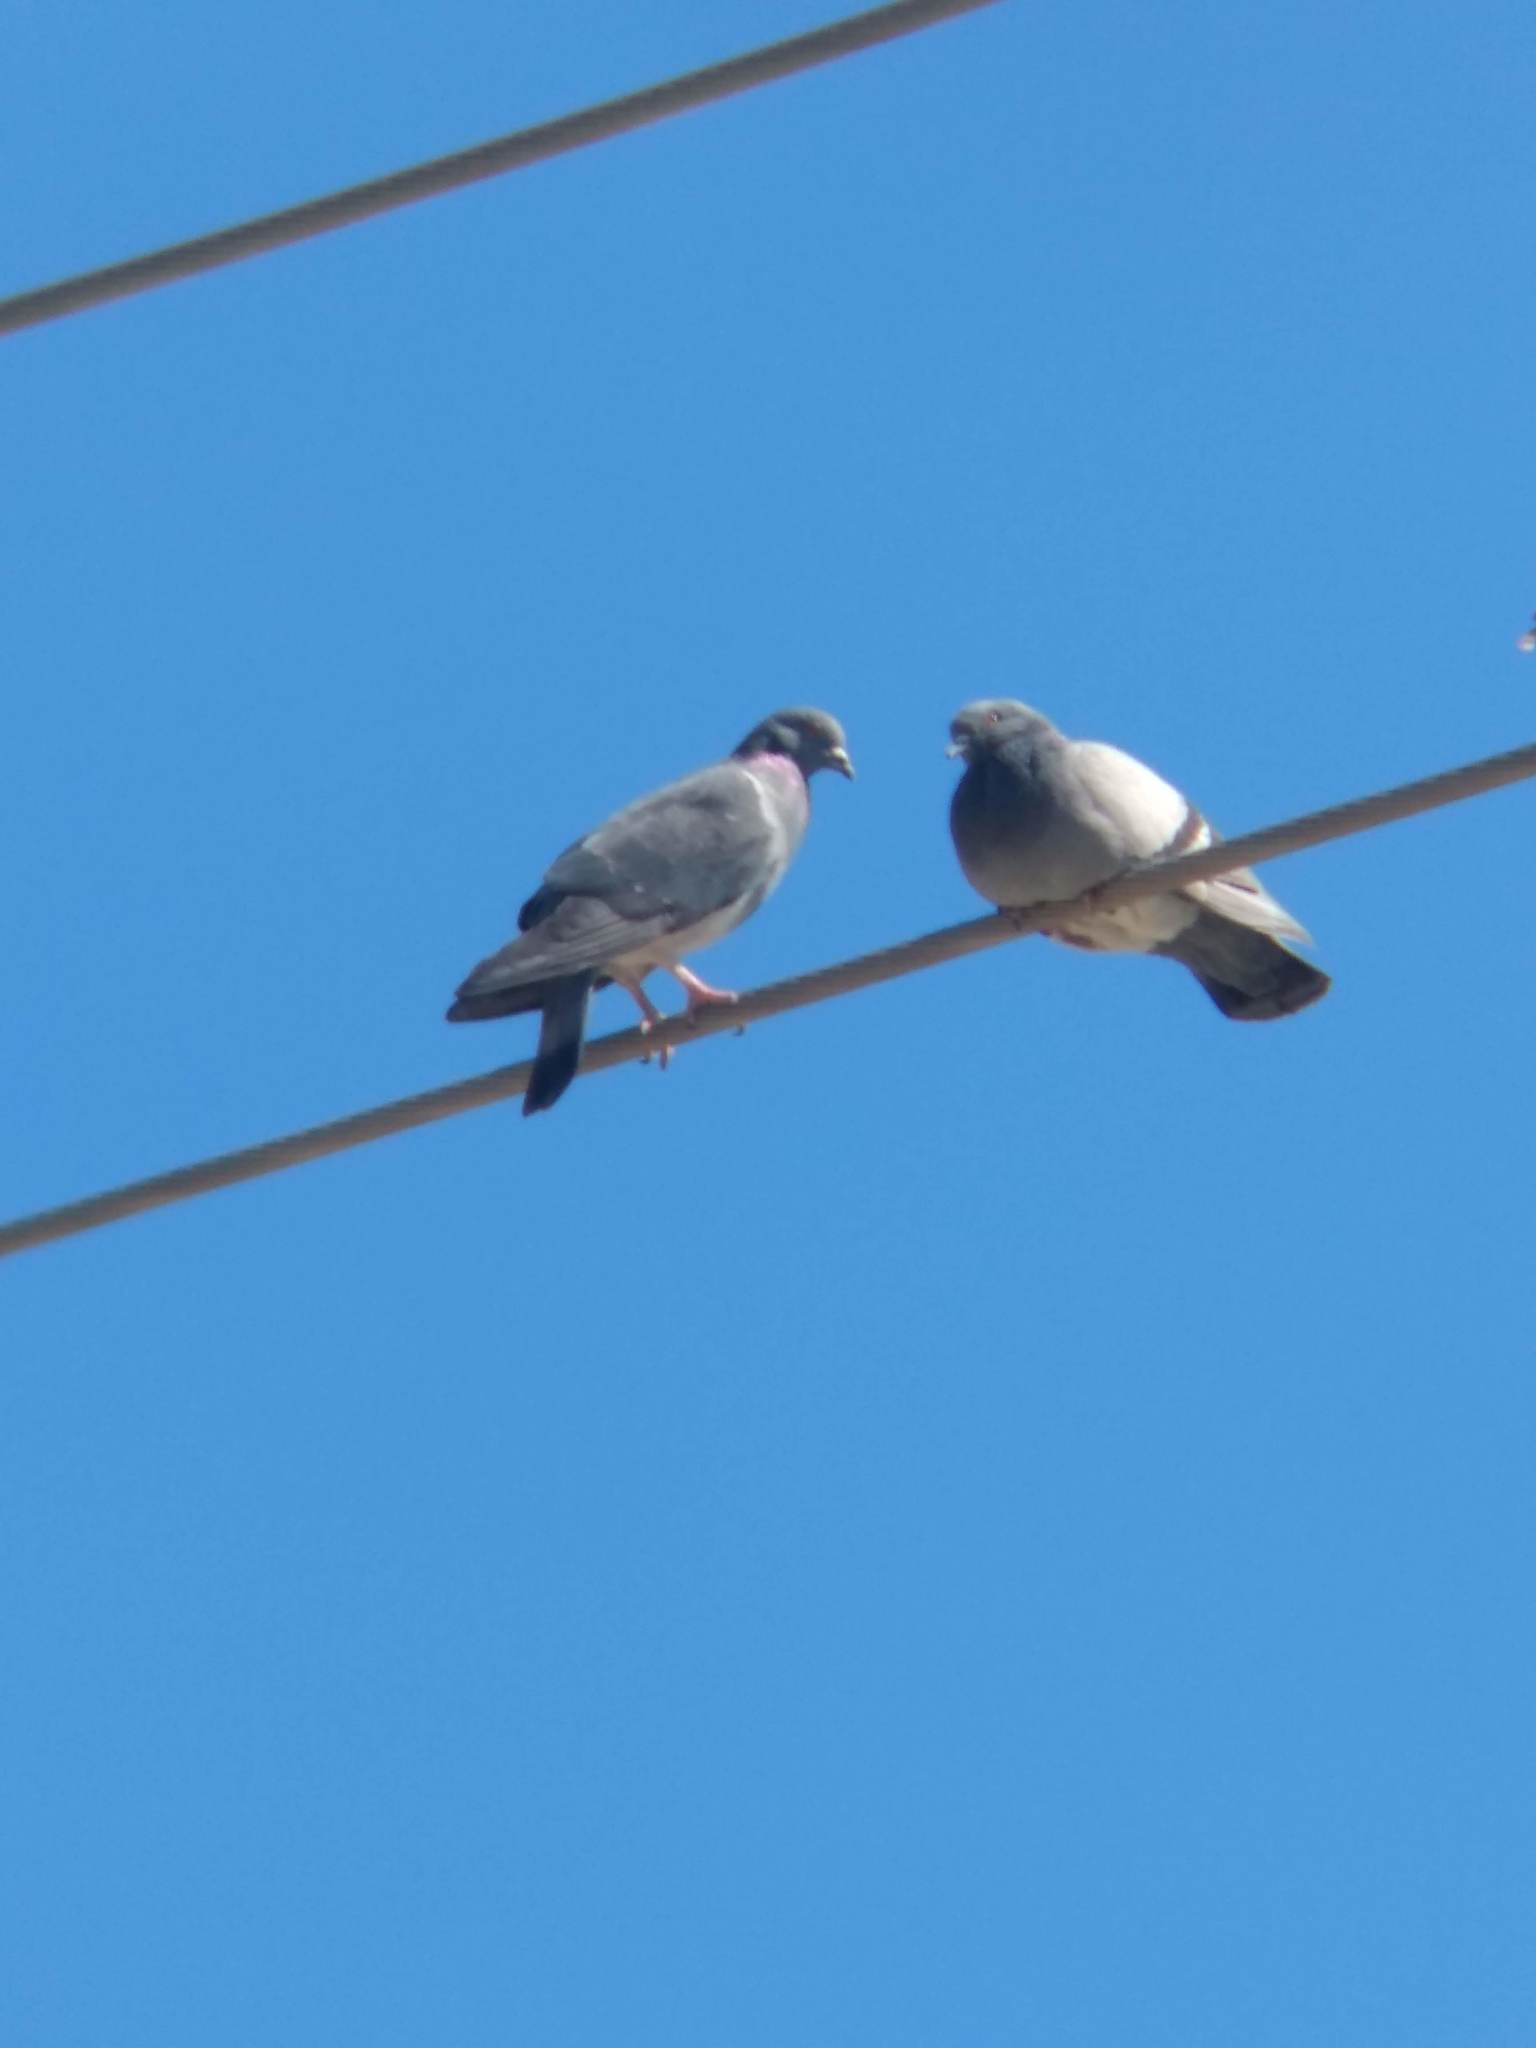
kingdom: Animalia
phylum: Chordata
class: Aves
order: Columbiformes
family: Columbidae
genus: Columba
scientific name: Columba livia
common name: Rock pigeon
